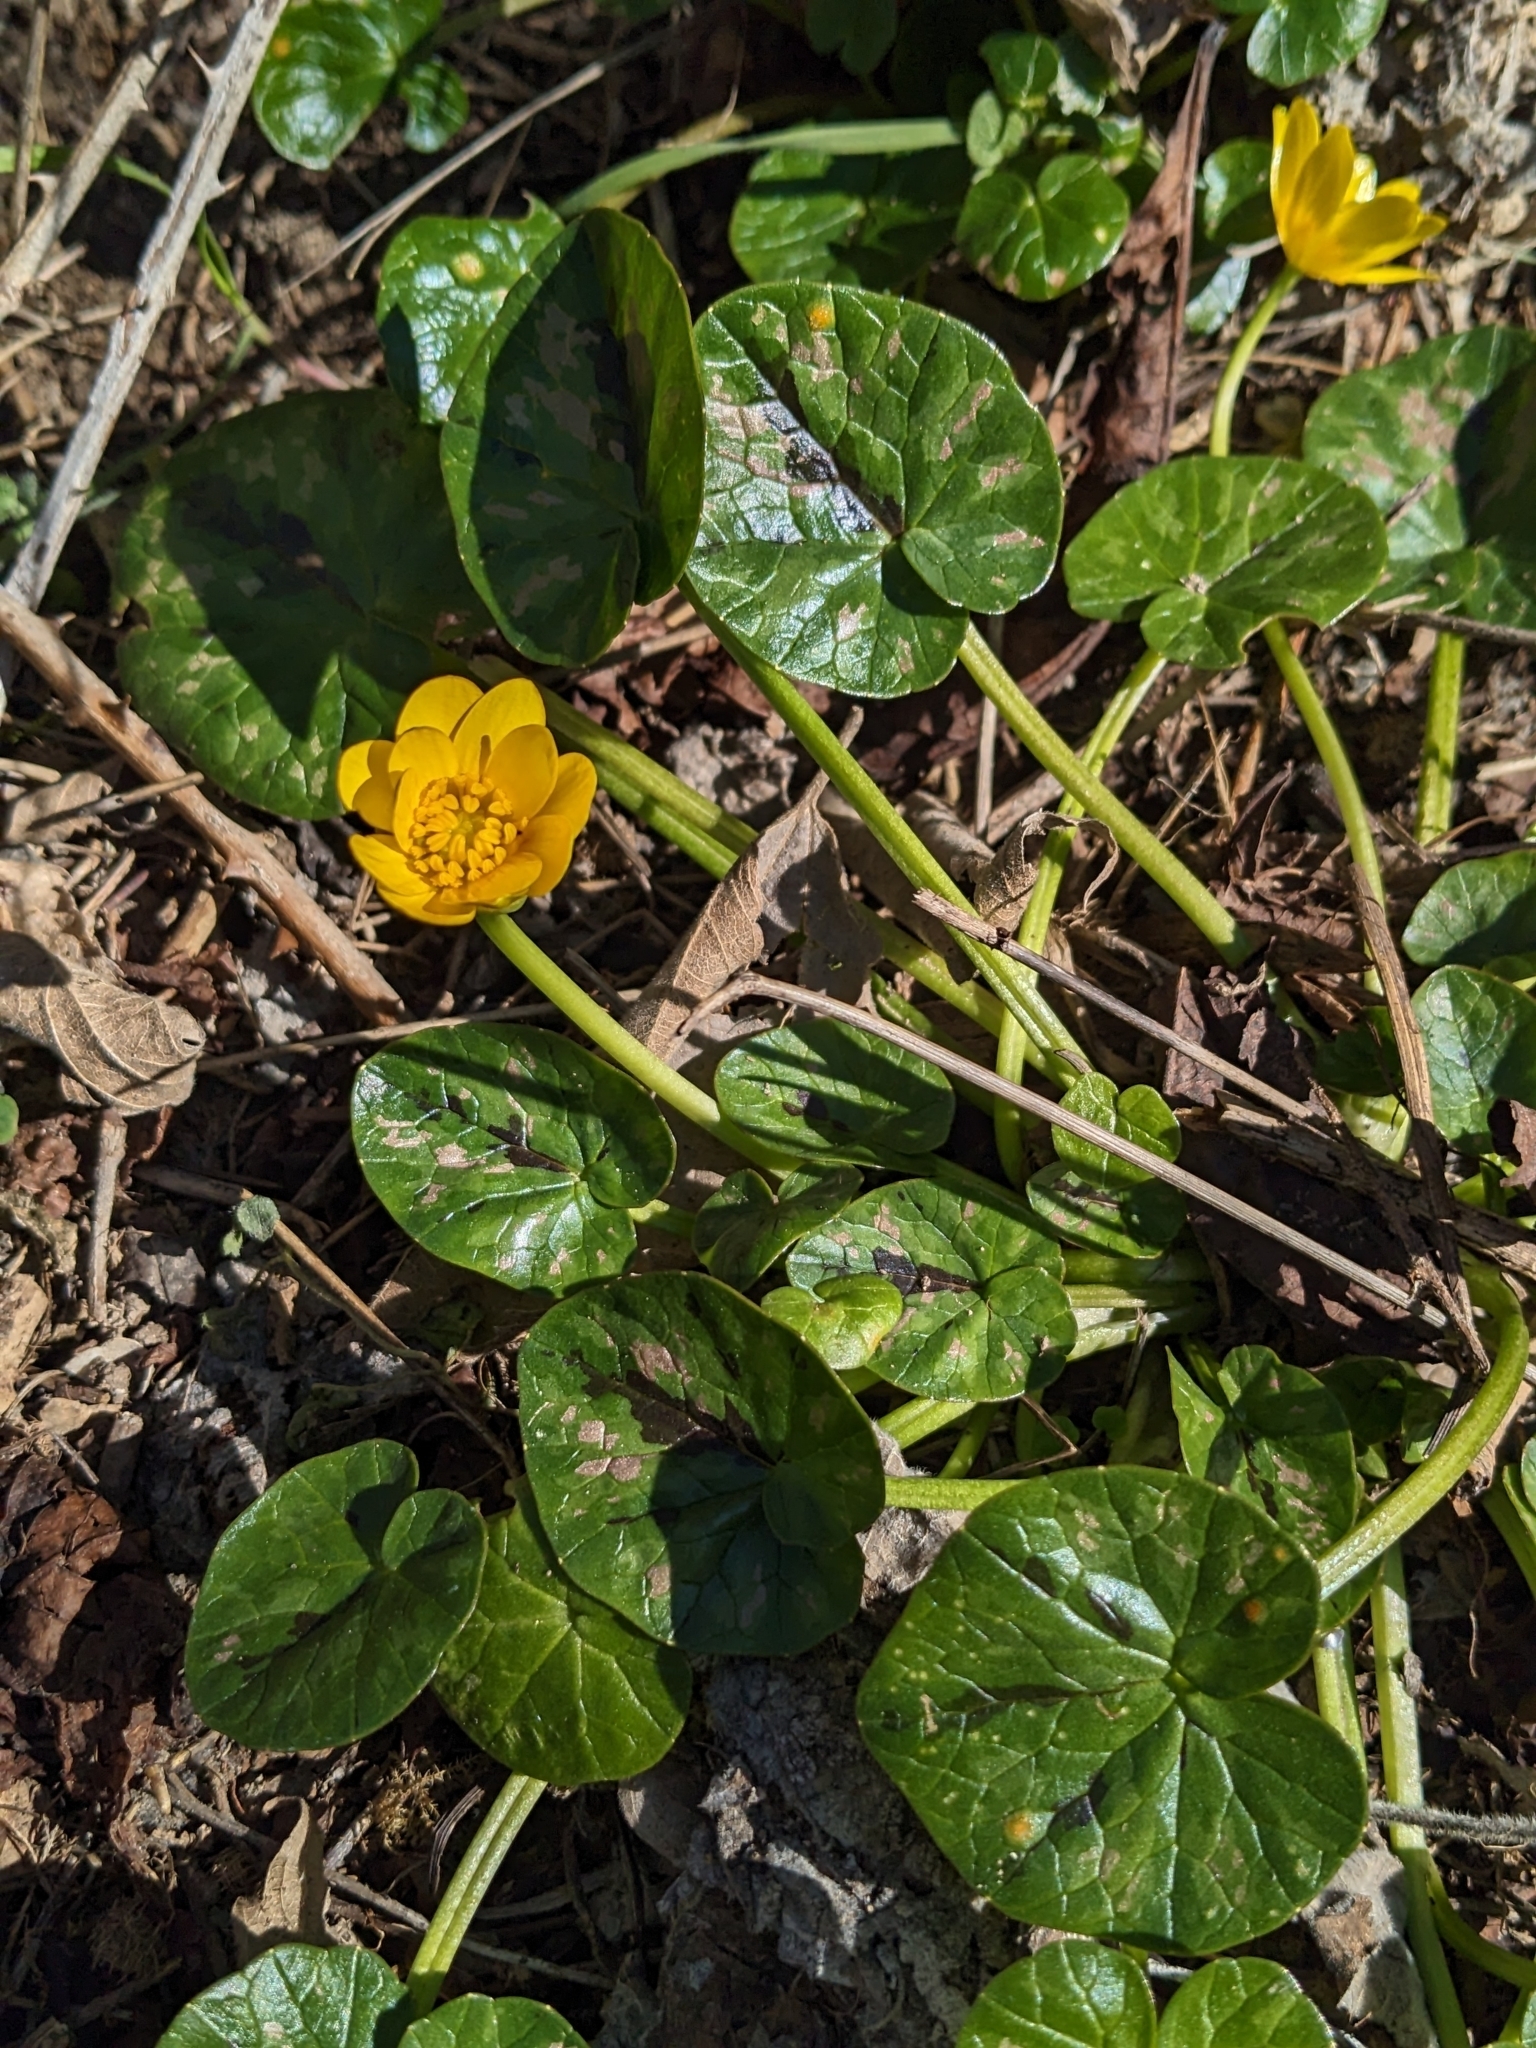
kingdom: Plantae
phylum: Tracheophyta
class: Magnoliopsida
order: Ranunculales
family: Ranunculaceae
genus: Ficaria
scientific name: Ficaria verna
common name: Lesser celandine
